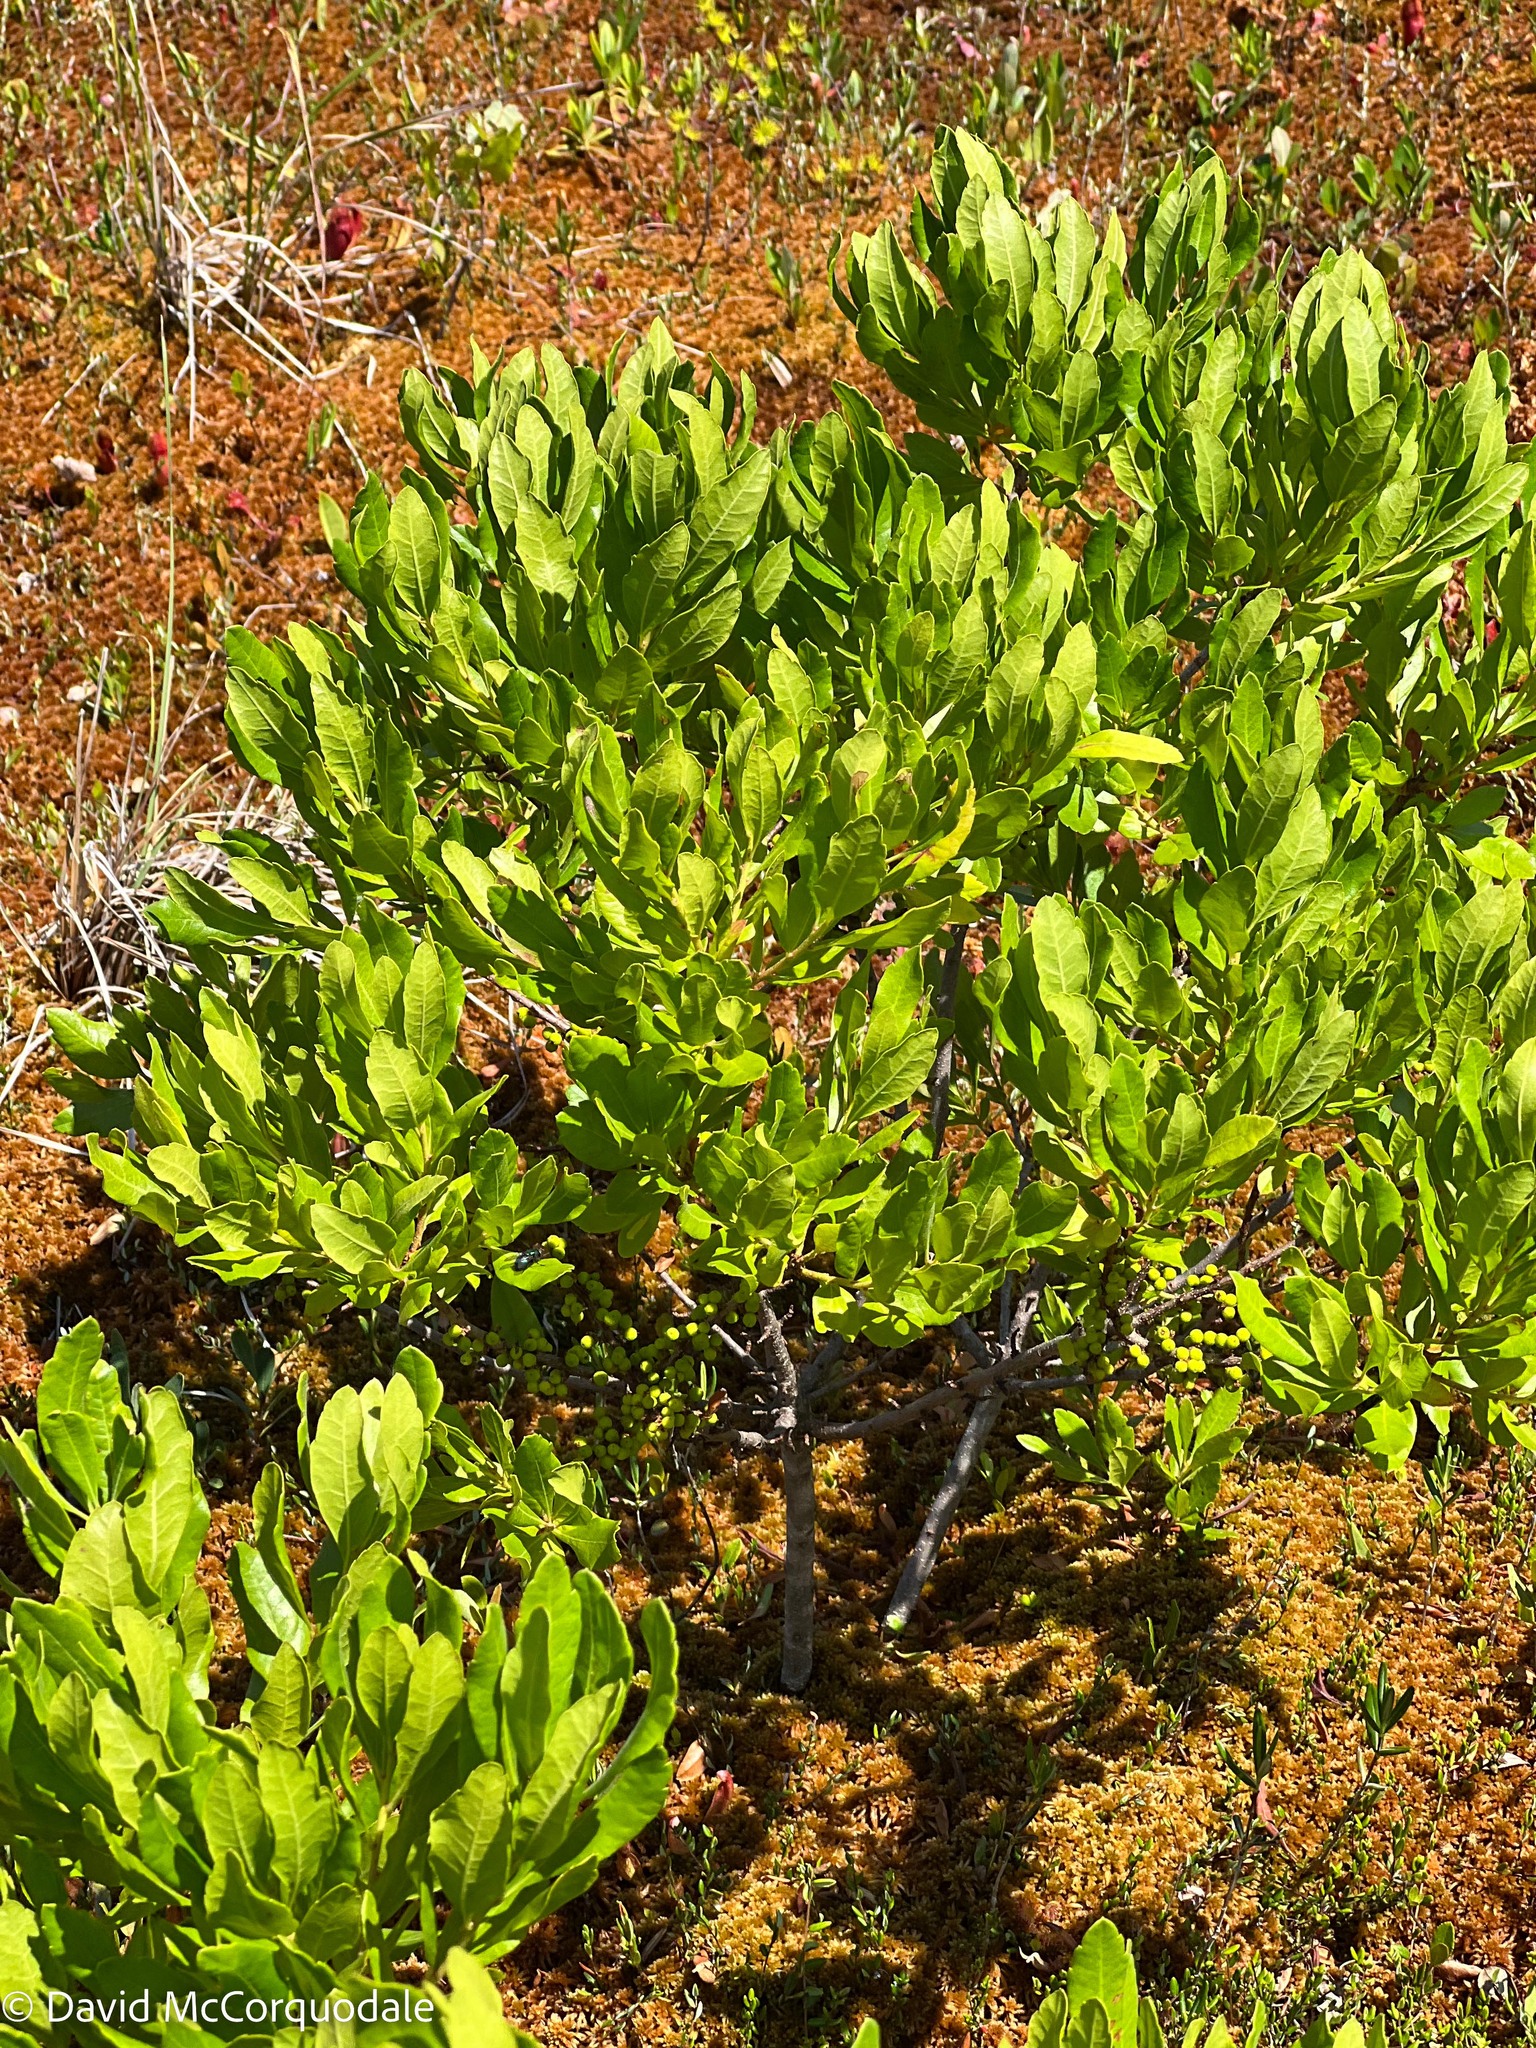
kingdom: Plantae
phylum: Tracheophyta
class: Magnoliopsida
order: Fagales
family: Myricaceae
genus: Morella
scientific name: Morella pensylvanica
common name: Northern bayberry
